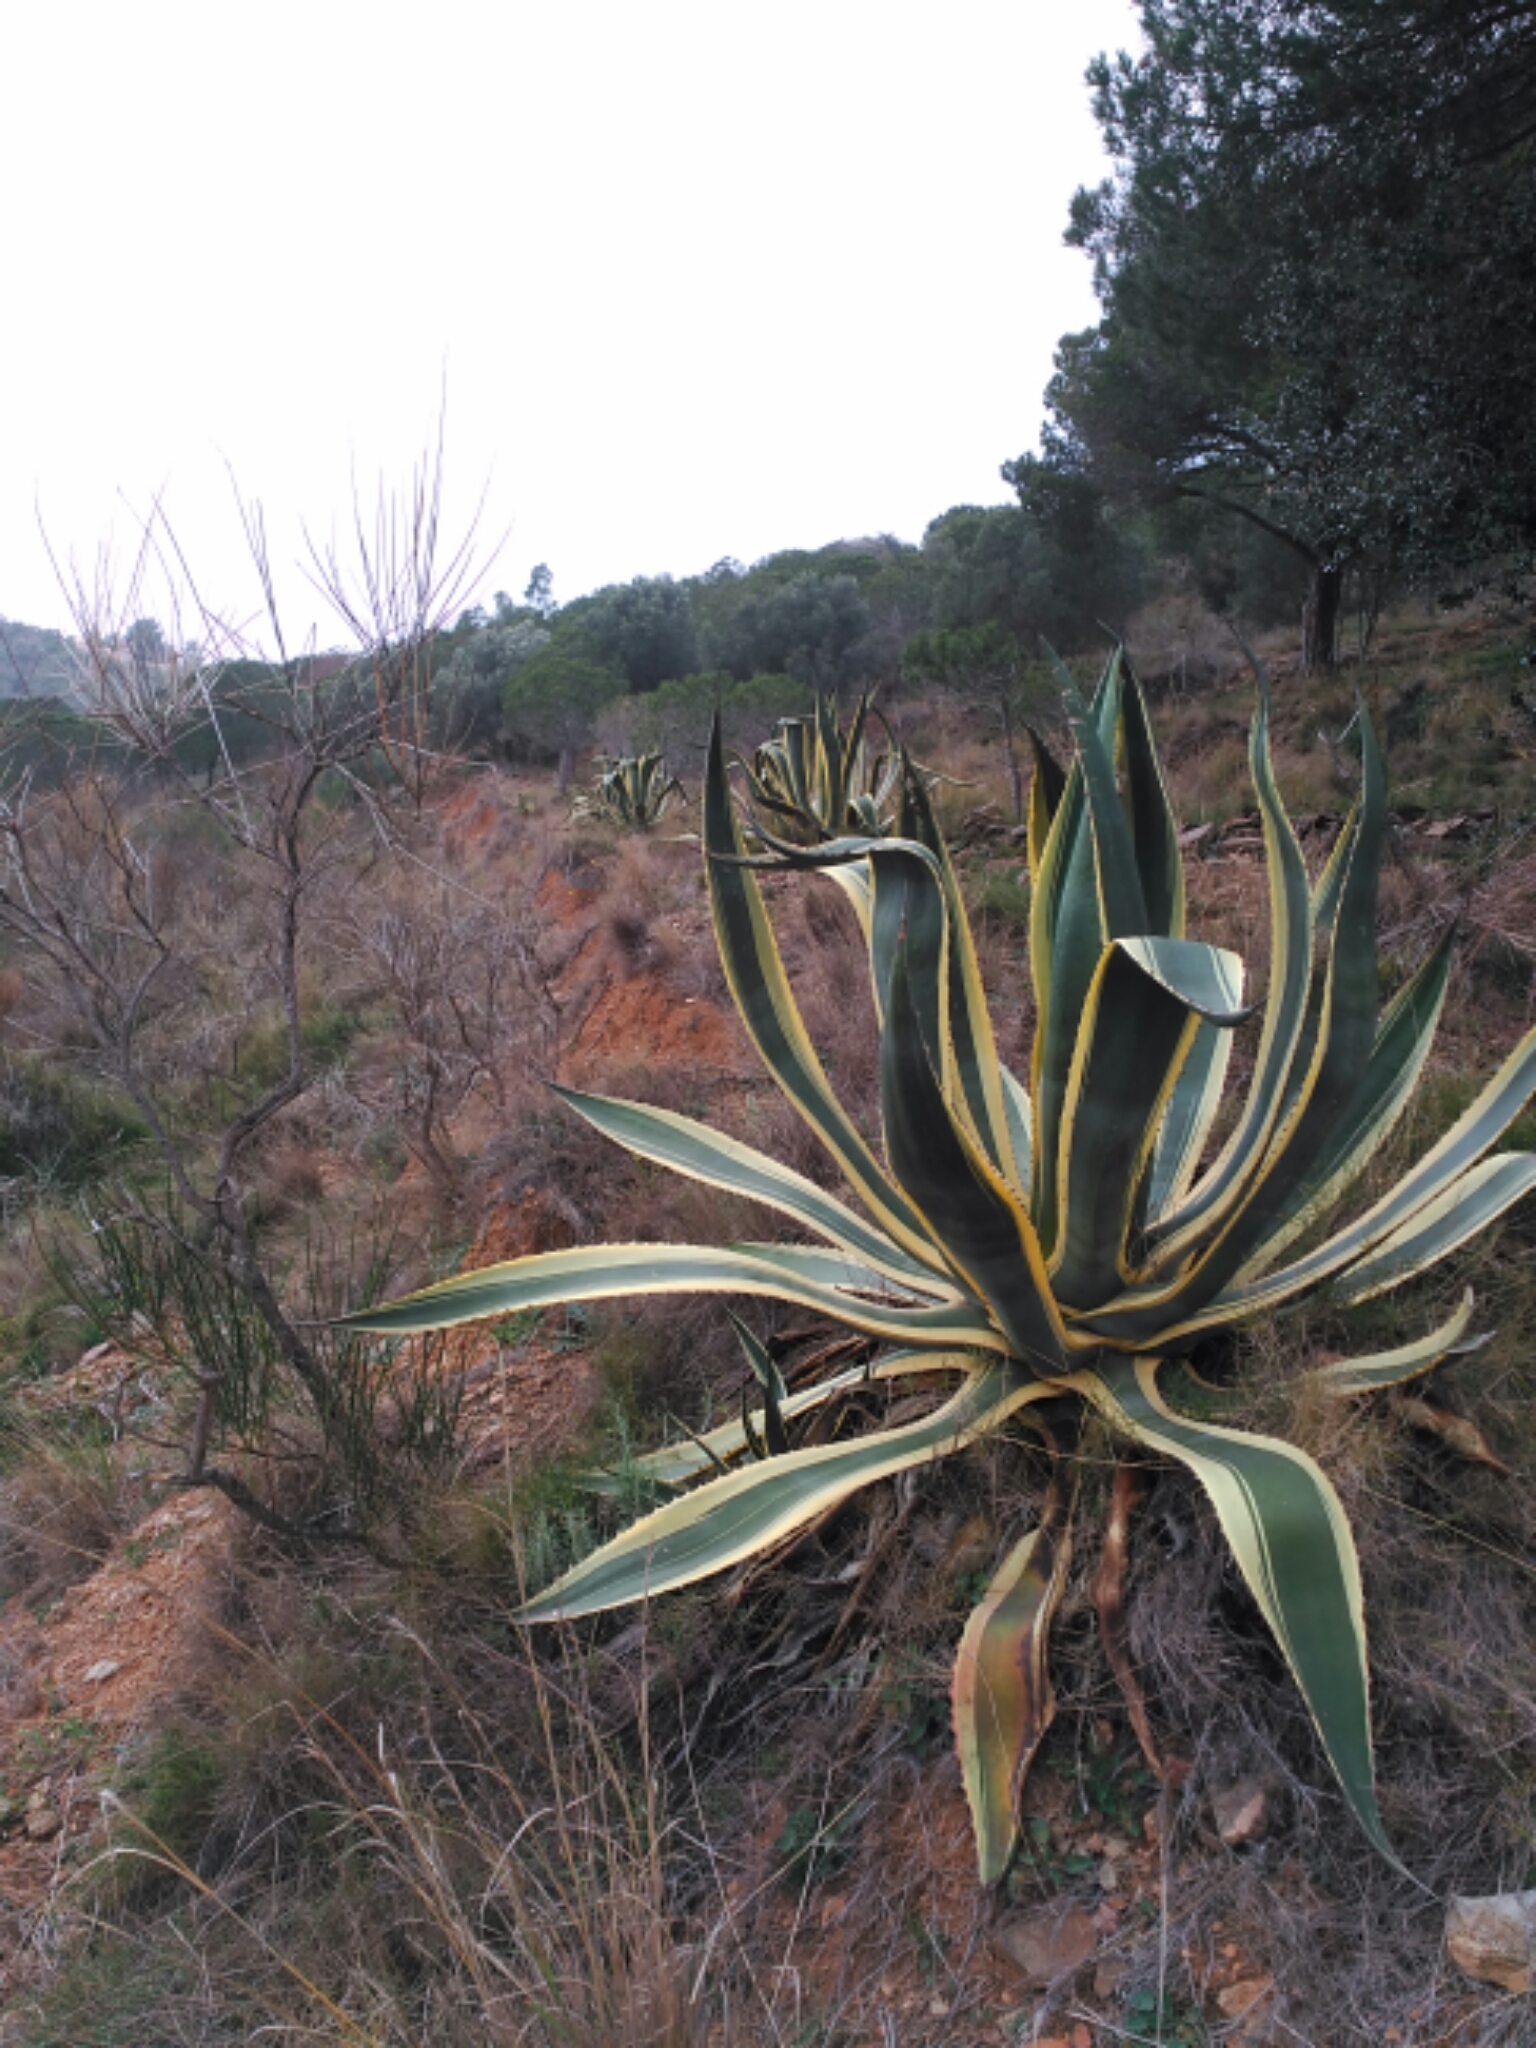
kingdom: Plantae
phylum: Tracheophyta
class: Liliopsida
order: Asparagales
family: Asparagaceae
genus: Agave
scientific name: Agave americana
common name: Centuryplant
